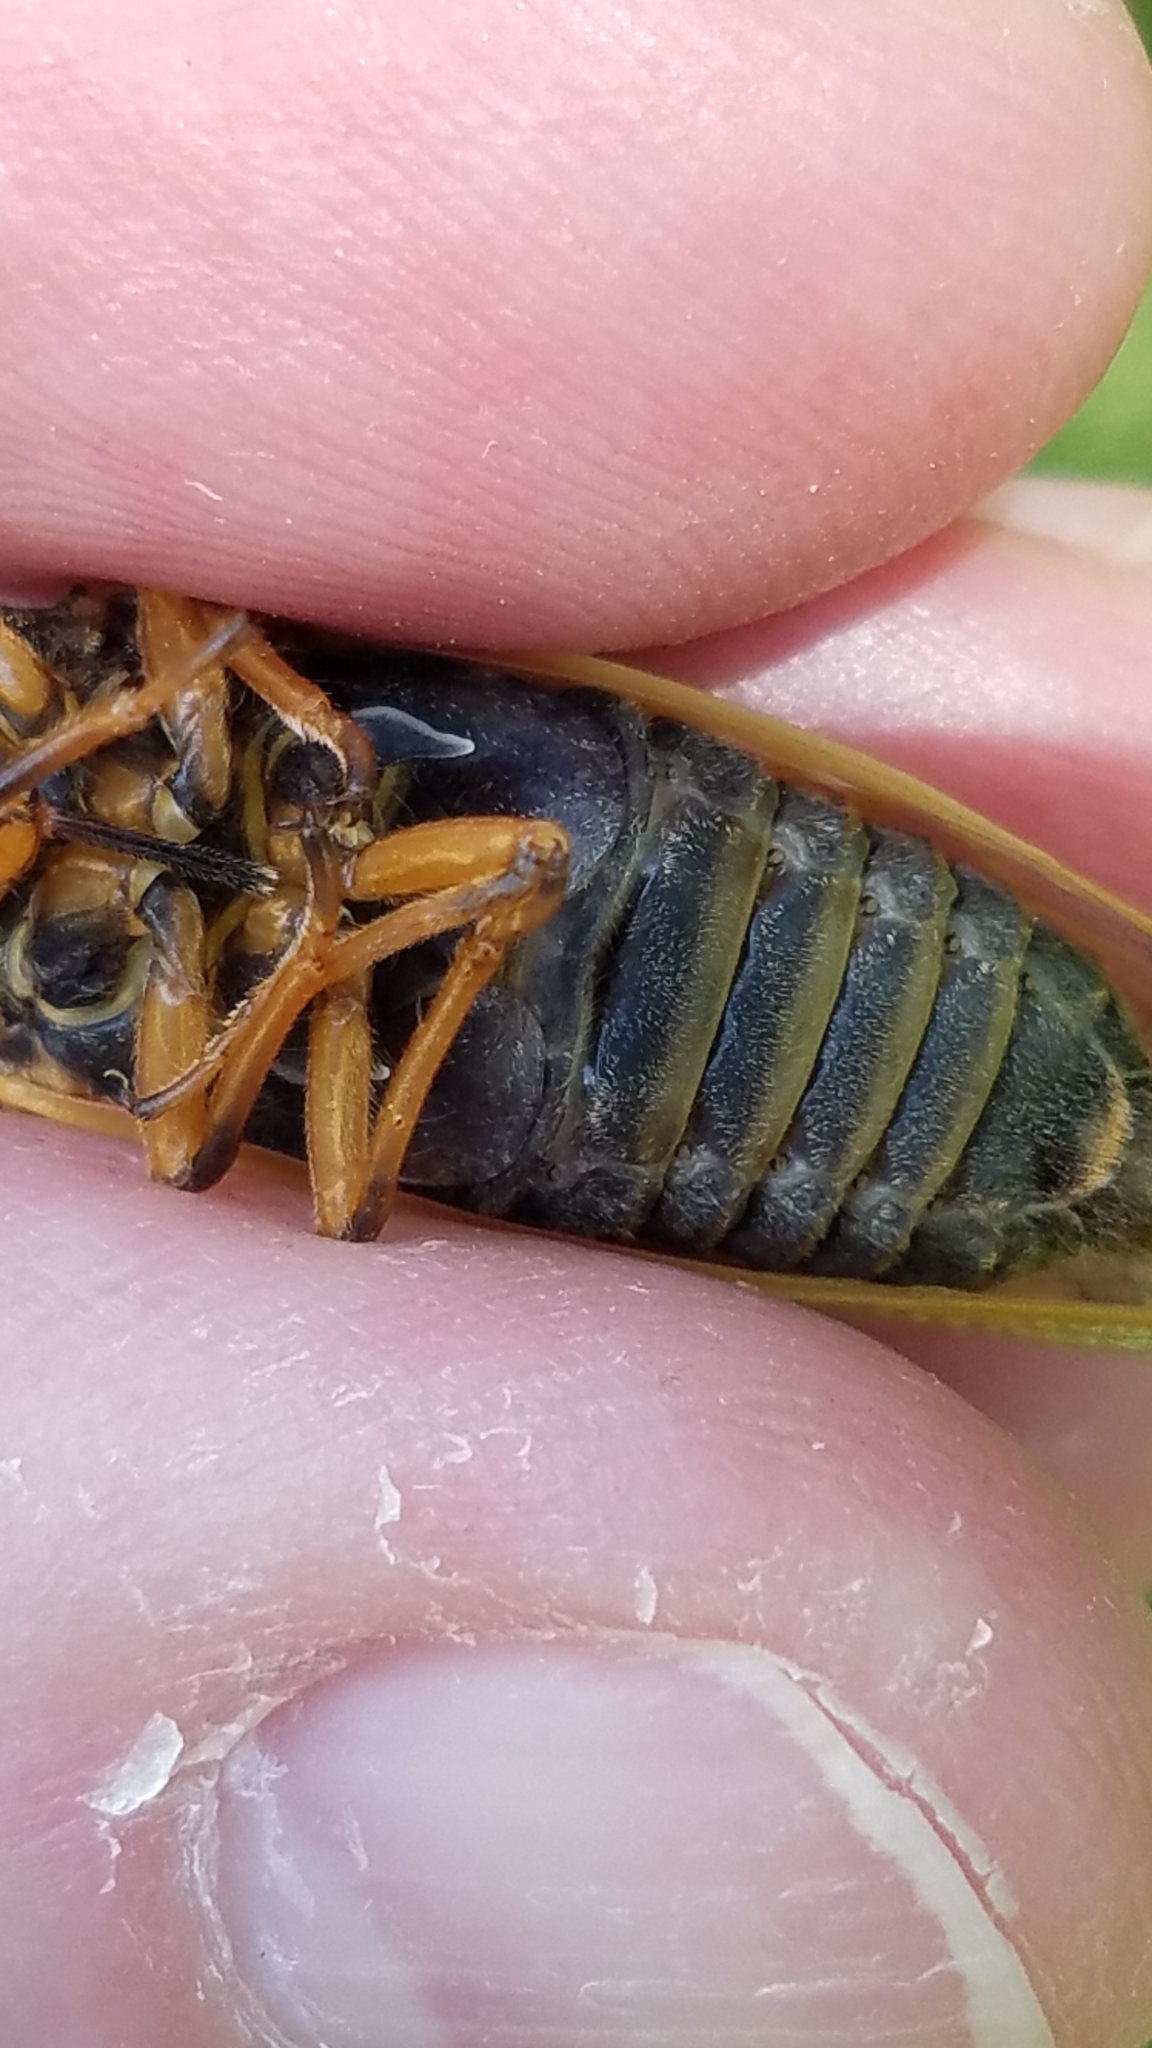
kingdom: Animalia
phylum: Arthropoda
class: Insecta
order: Hemiptera
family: Cicadidae
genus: Magicicada
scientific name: Magicicada cassini
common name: Cassin's 17-year cicada
